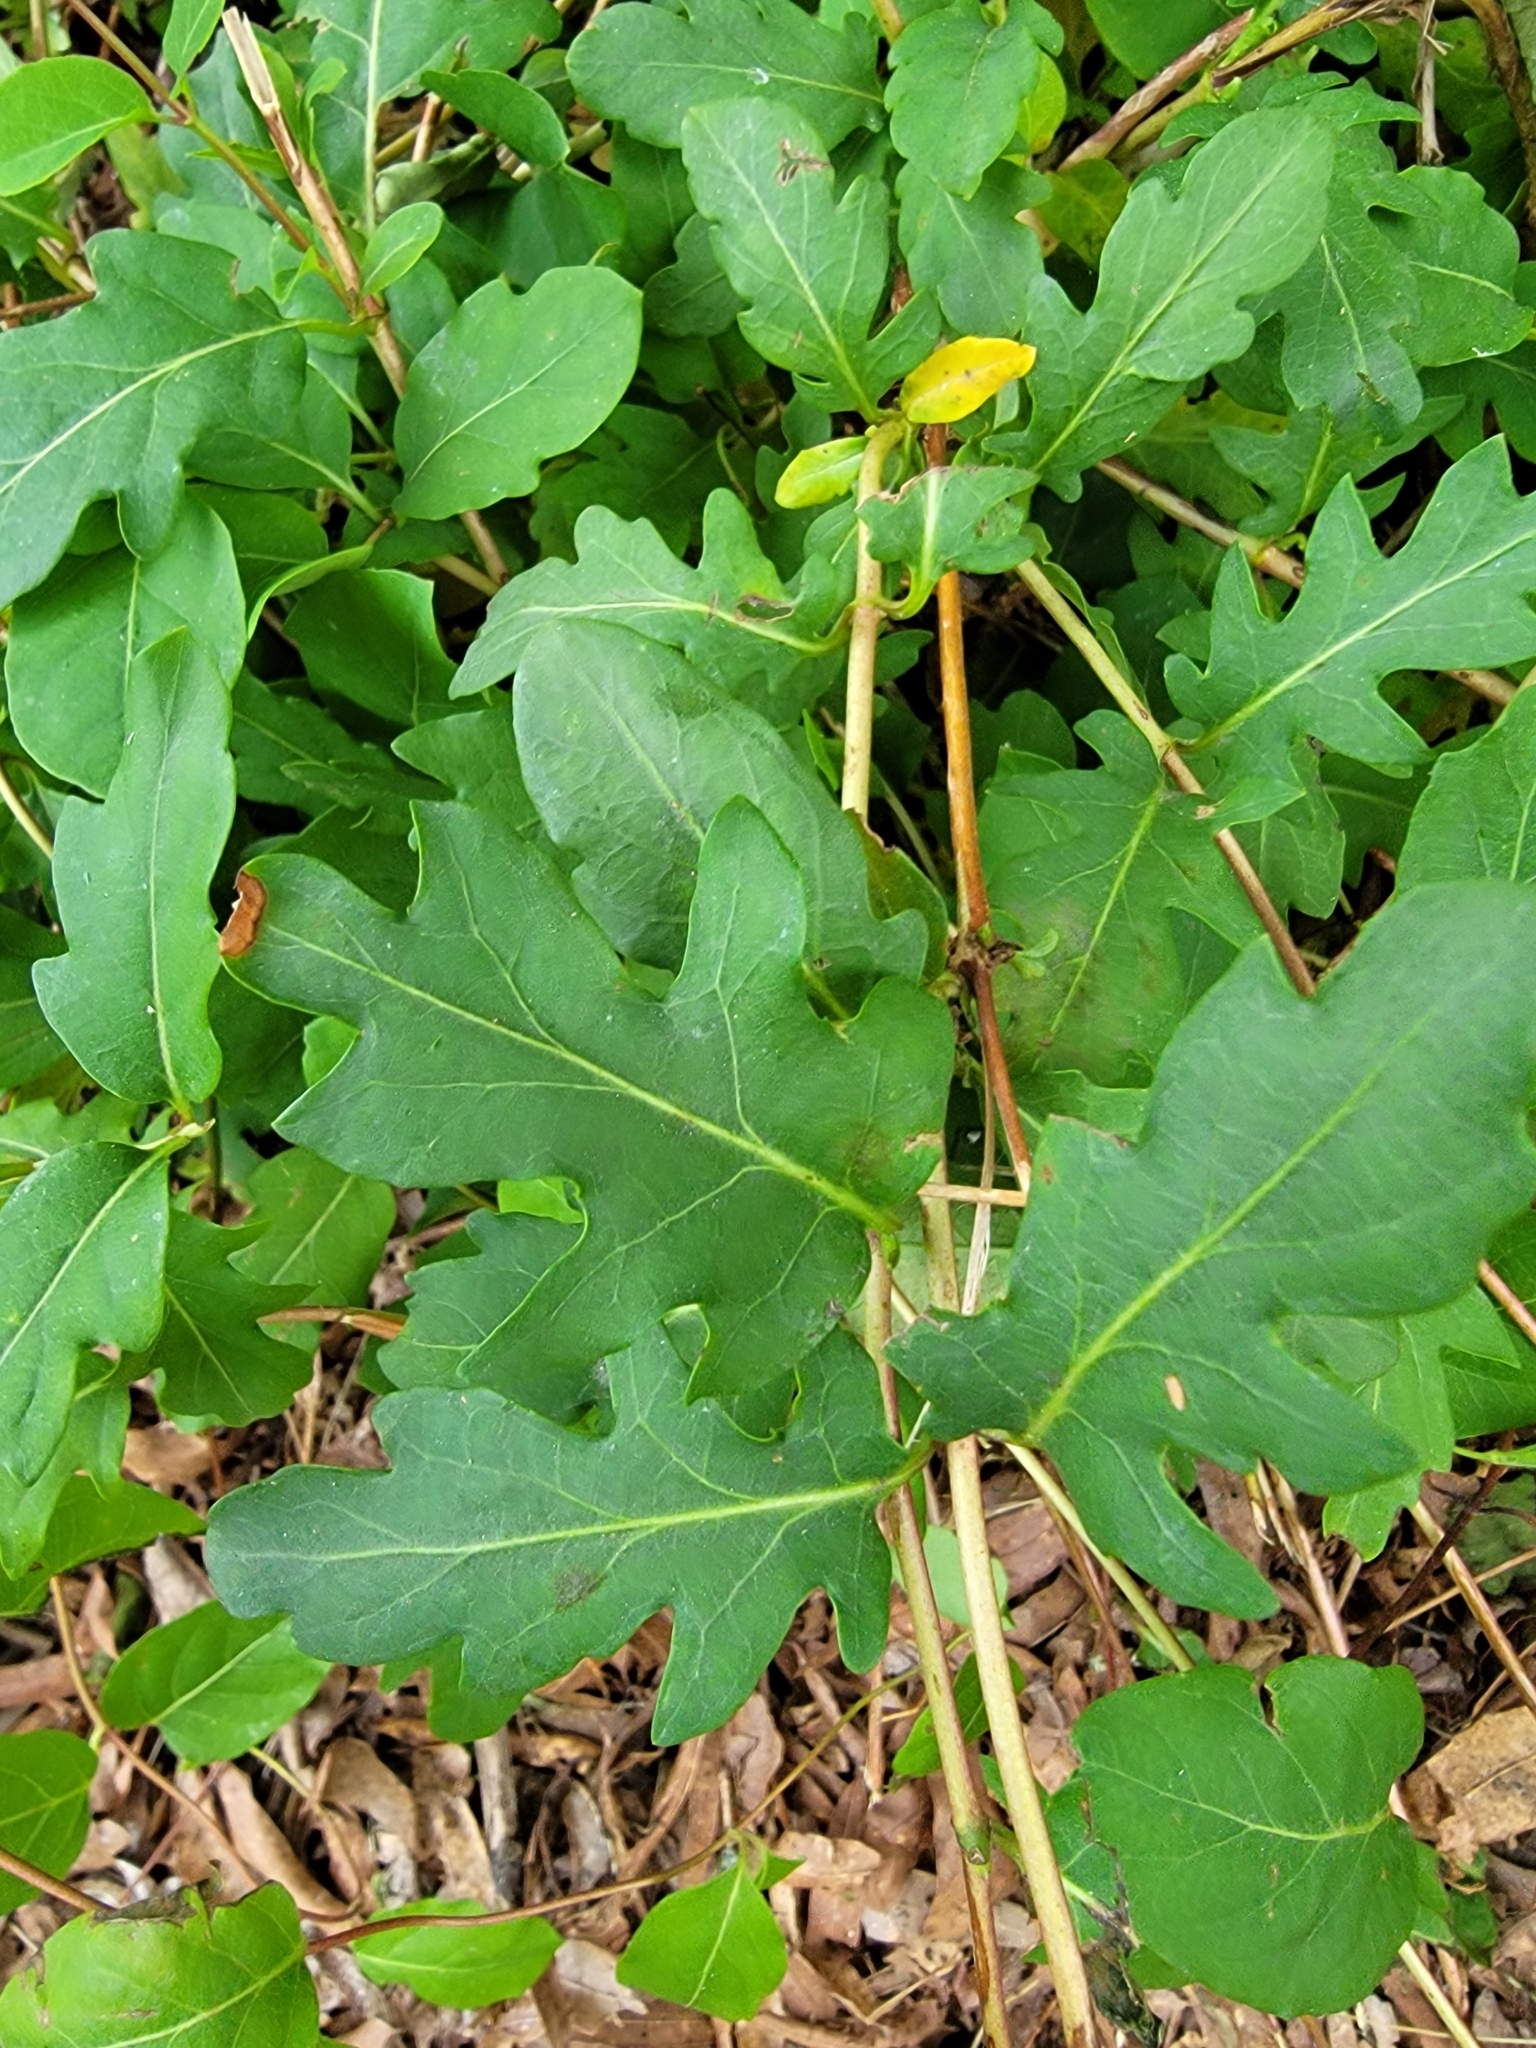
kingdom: Plantae
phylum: Tracheophyta
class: Magnoliopsida
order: Dipsacales
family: Caprifoliaceae
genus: Lonicera
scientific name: Lonicera japonica
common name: Japanese honeysuckle
